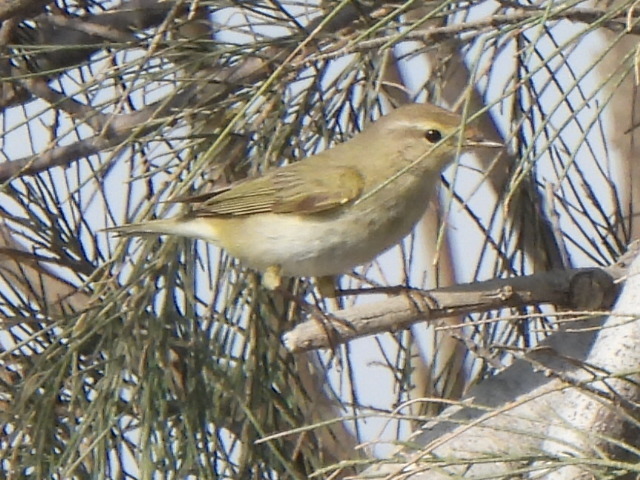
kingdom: Animalia
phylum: Chordata
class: Aves
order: Passeriformes
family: Phylloscopidae
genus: Phylloscopus
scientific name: Phylloscopus collybita
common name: Common chiffchaff
